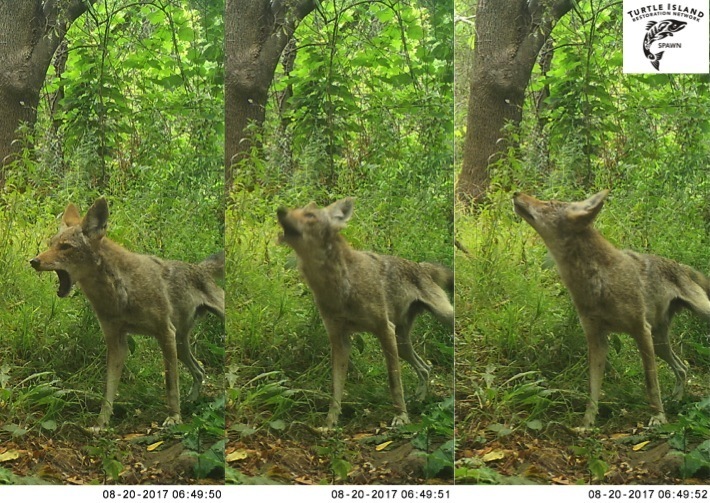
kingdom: Animalia
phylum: Chordata
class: Mammalia
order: Carnivora
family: Canidae
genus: Canis
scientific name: Canis latrans
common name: Coyote
